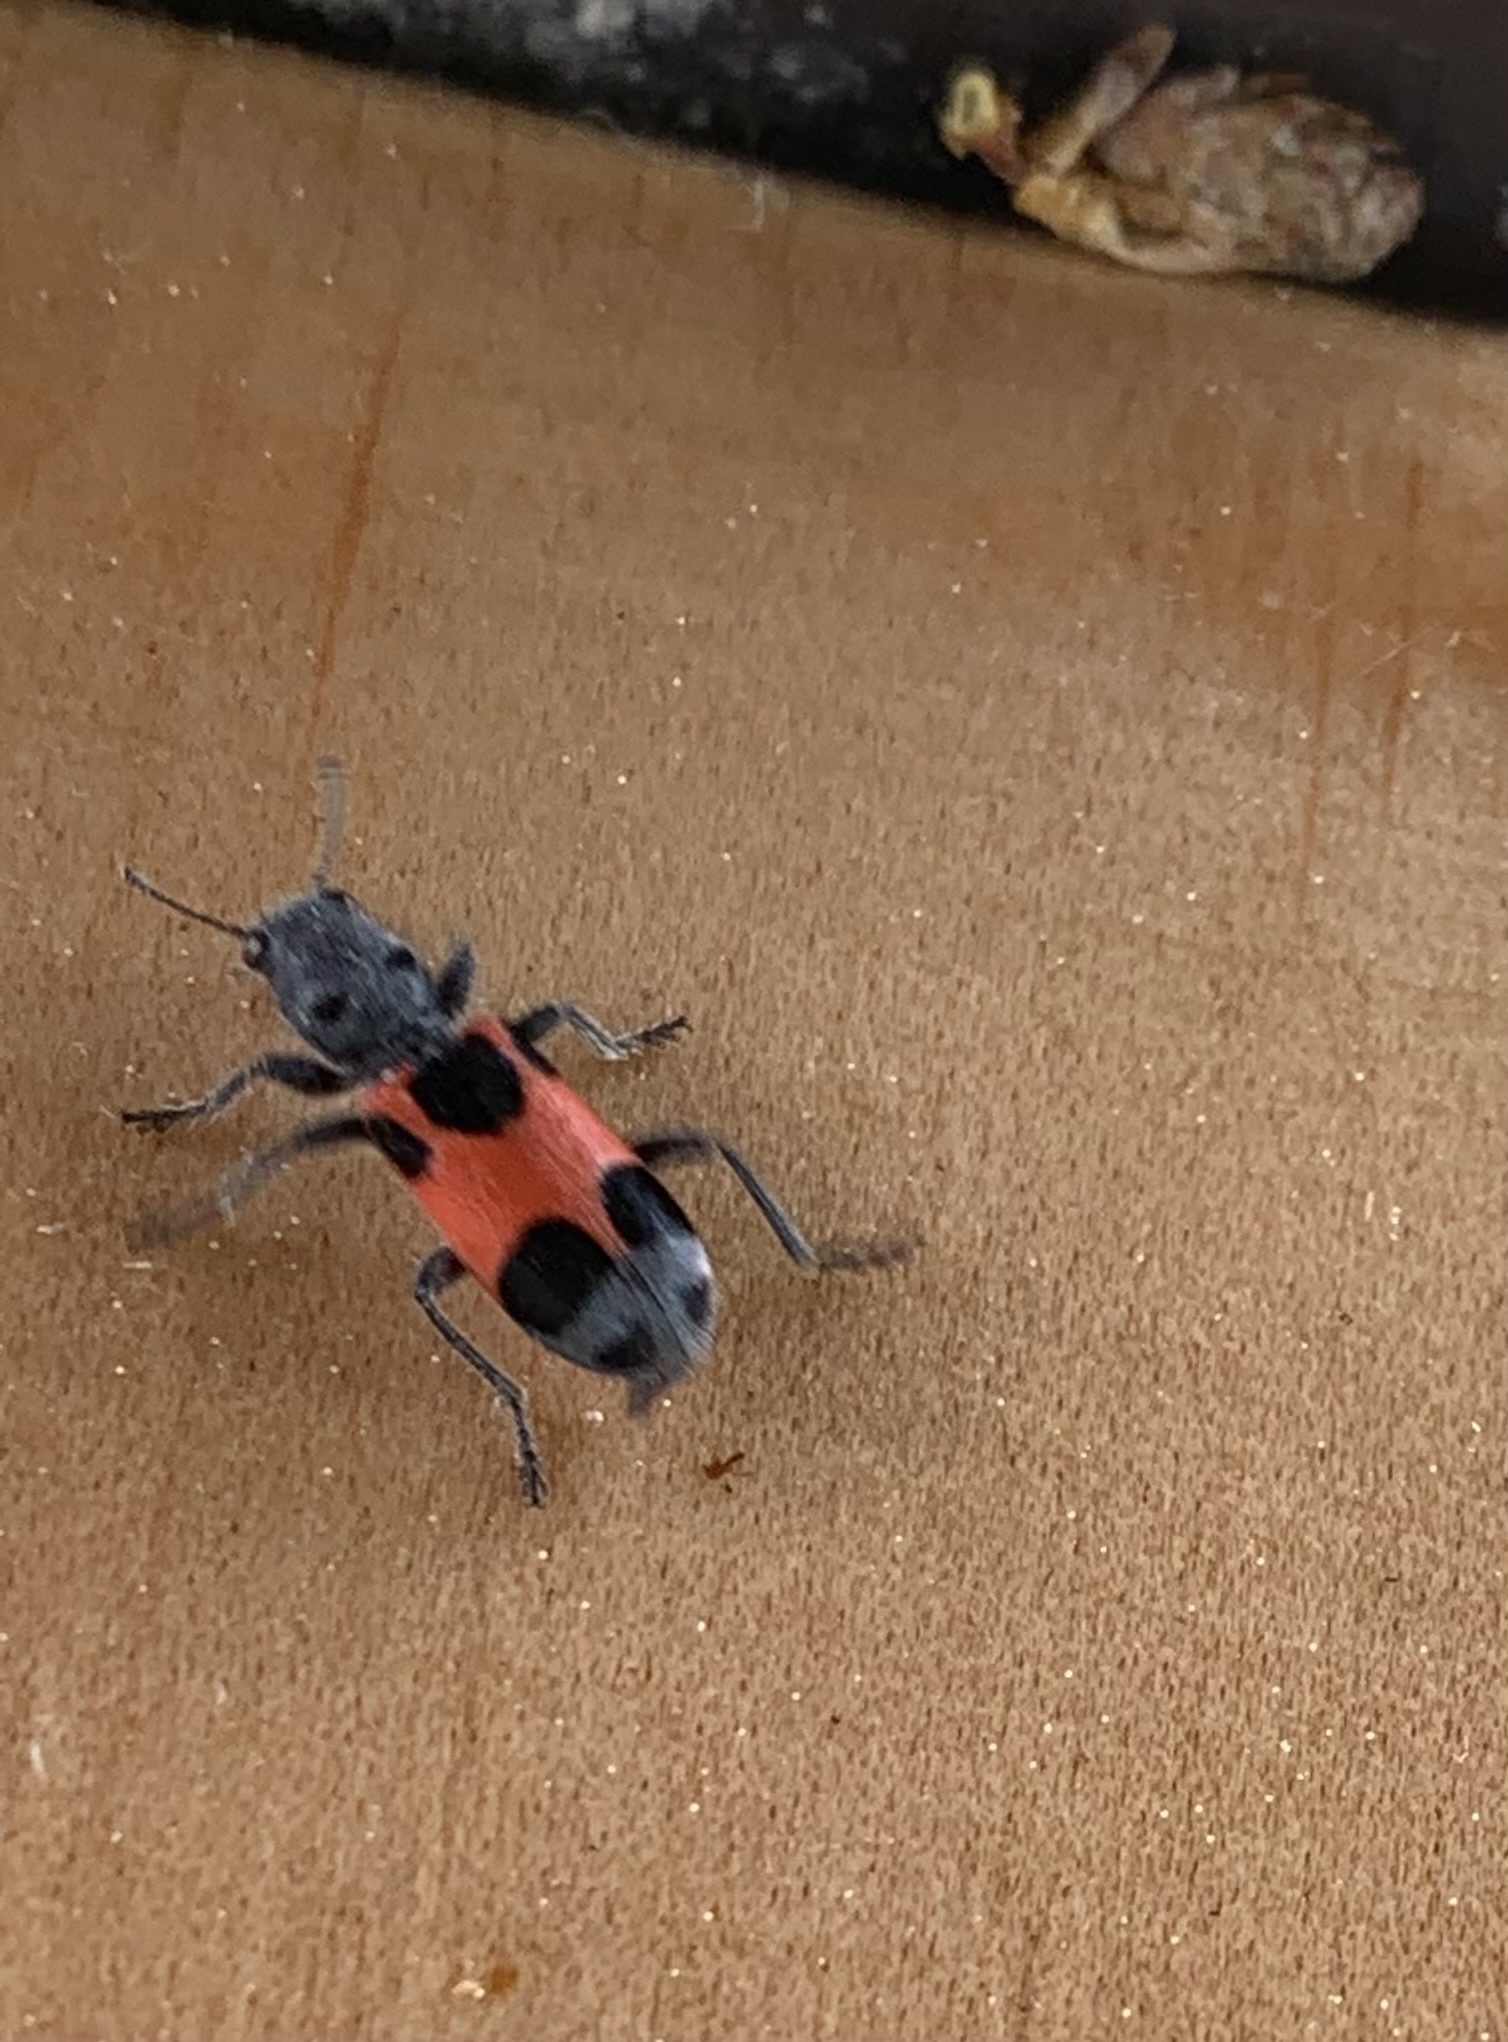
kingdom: Animalia
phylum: Arthropoda
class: Insecta
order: Coleoptera
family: Cleridae
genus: Enoclerus
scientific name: Enoclerus eximius
